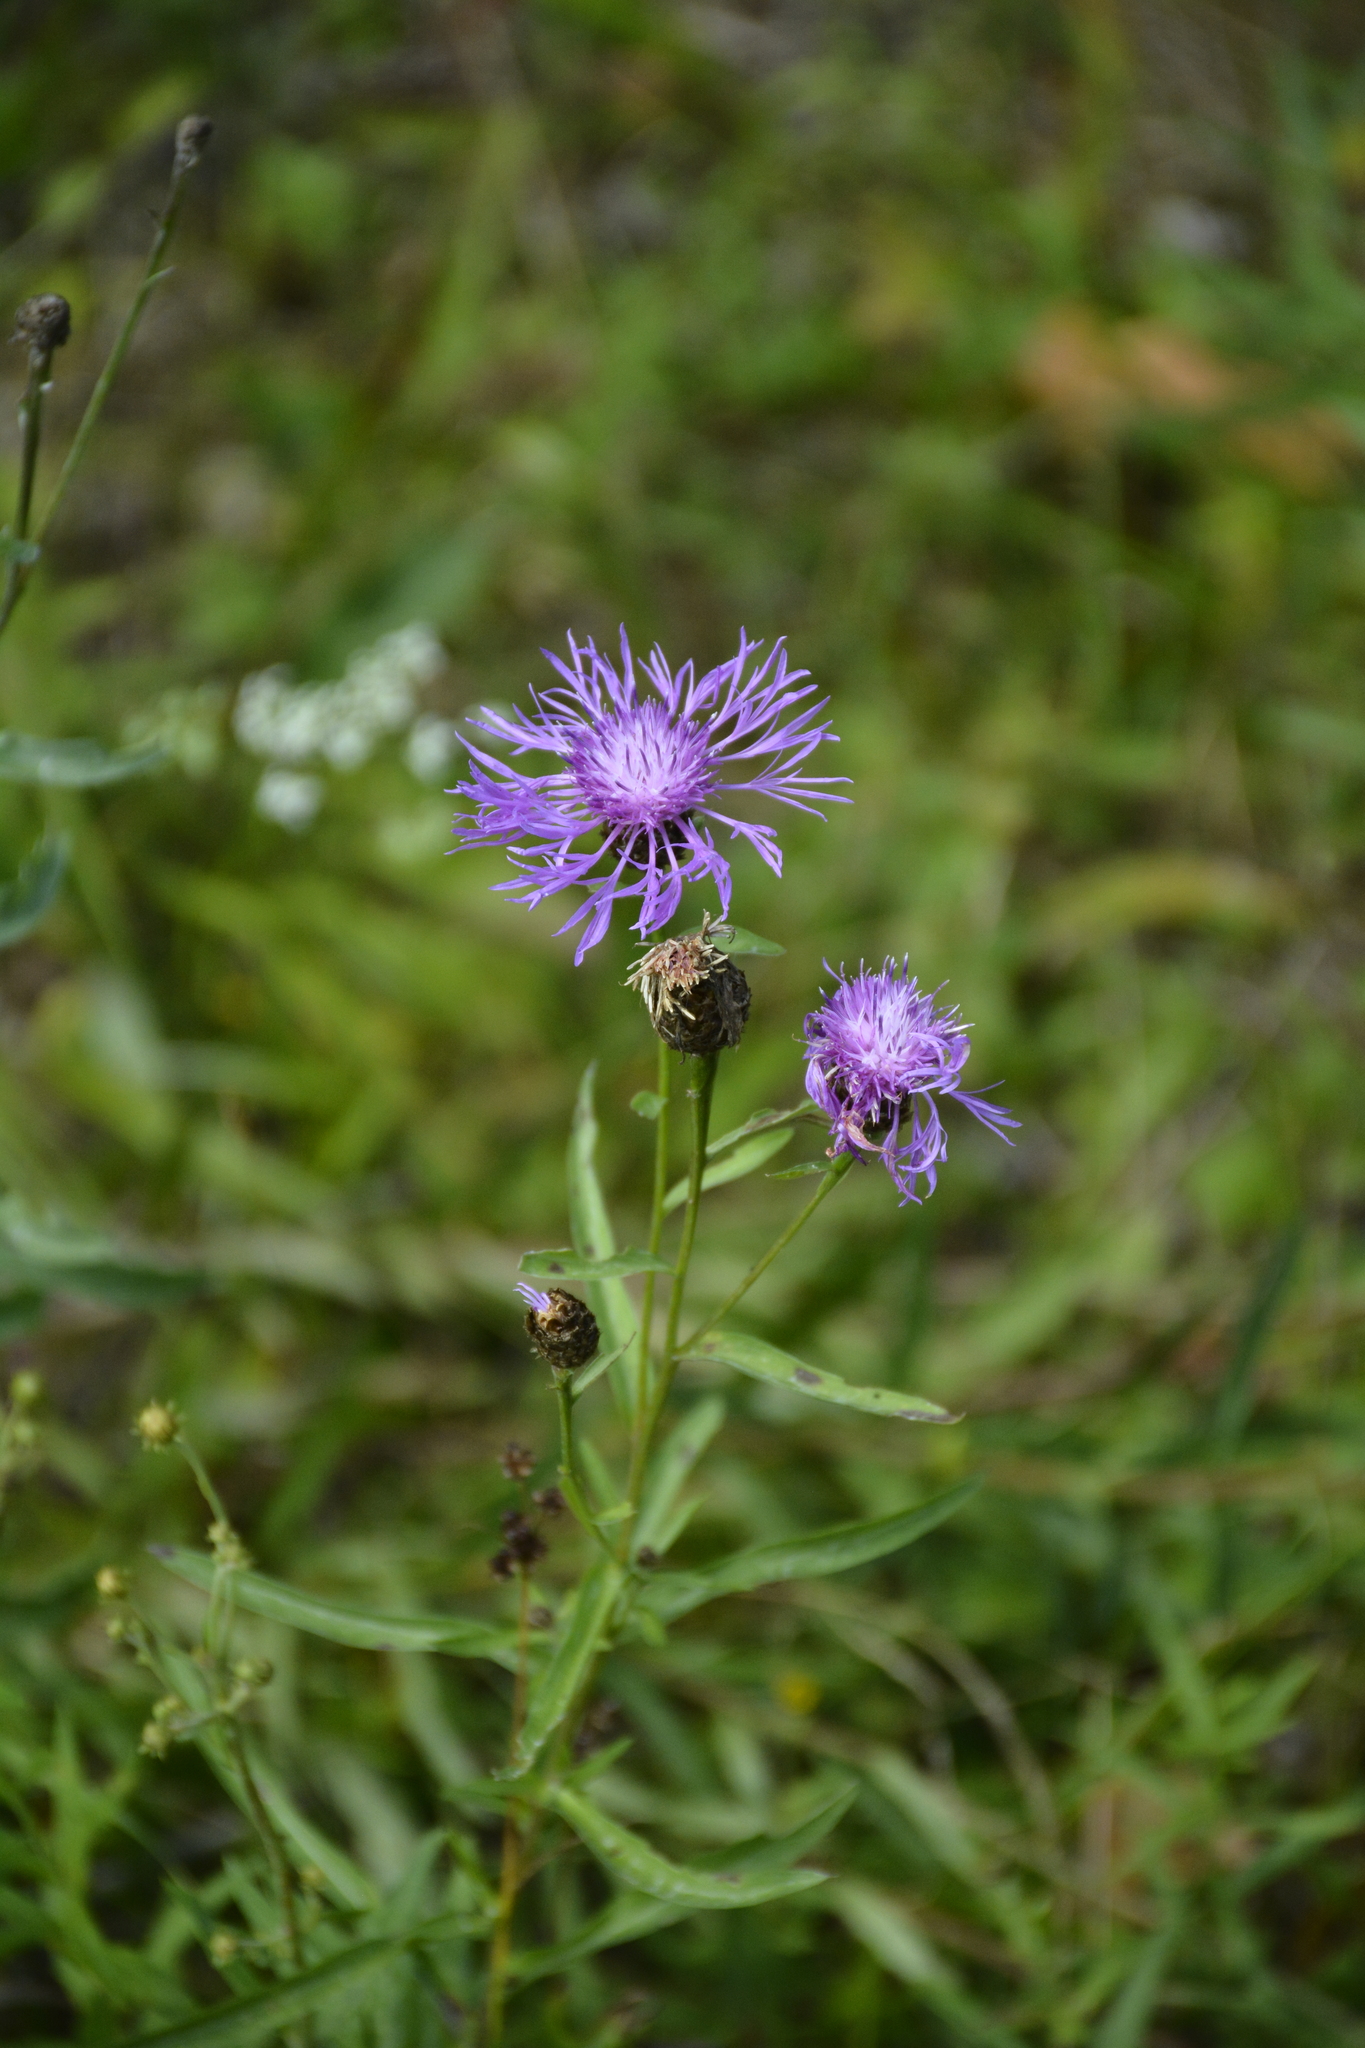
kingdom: Plantae
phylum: Tracheophyta
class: Magnoliopsida
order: Asterales
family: Asteraceae
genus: Centaurea
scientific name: Centaurea jacea
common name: Brown knapweed
